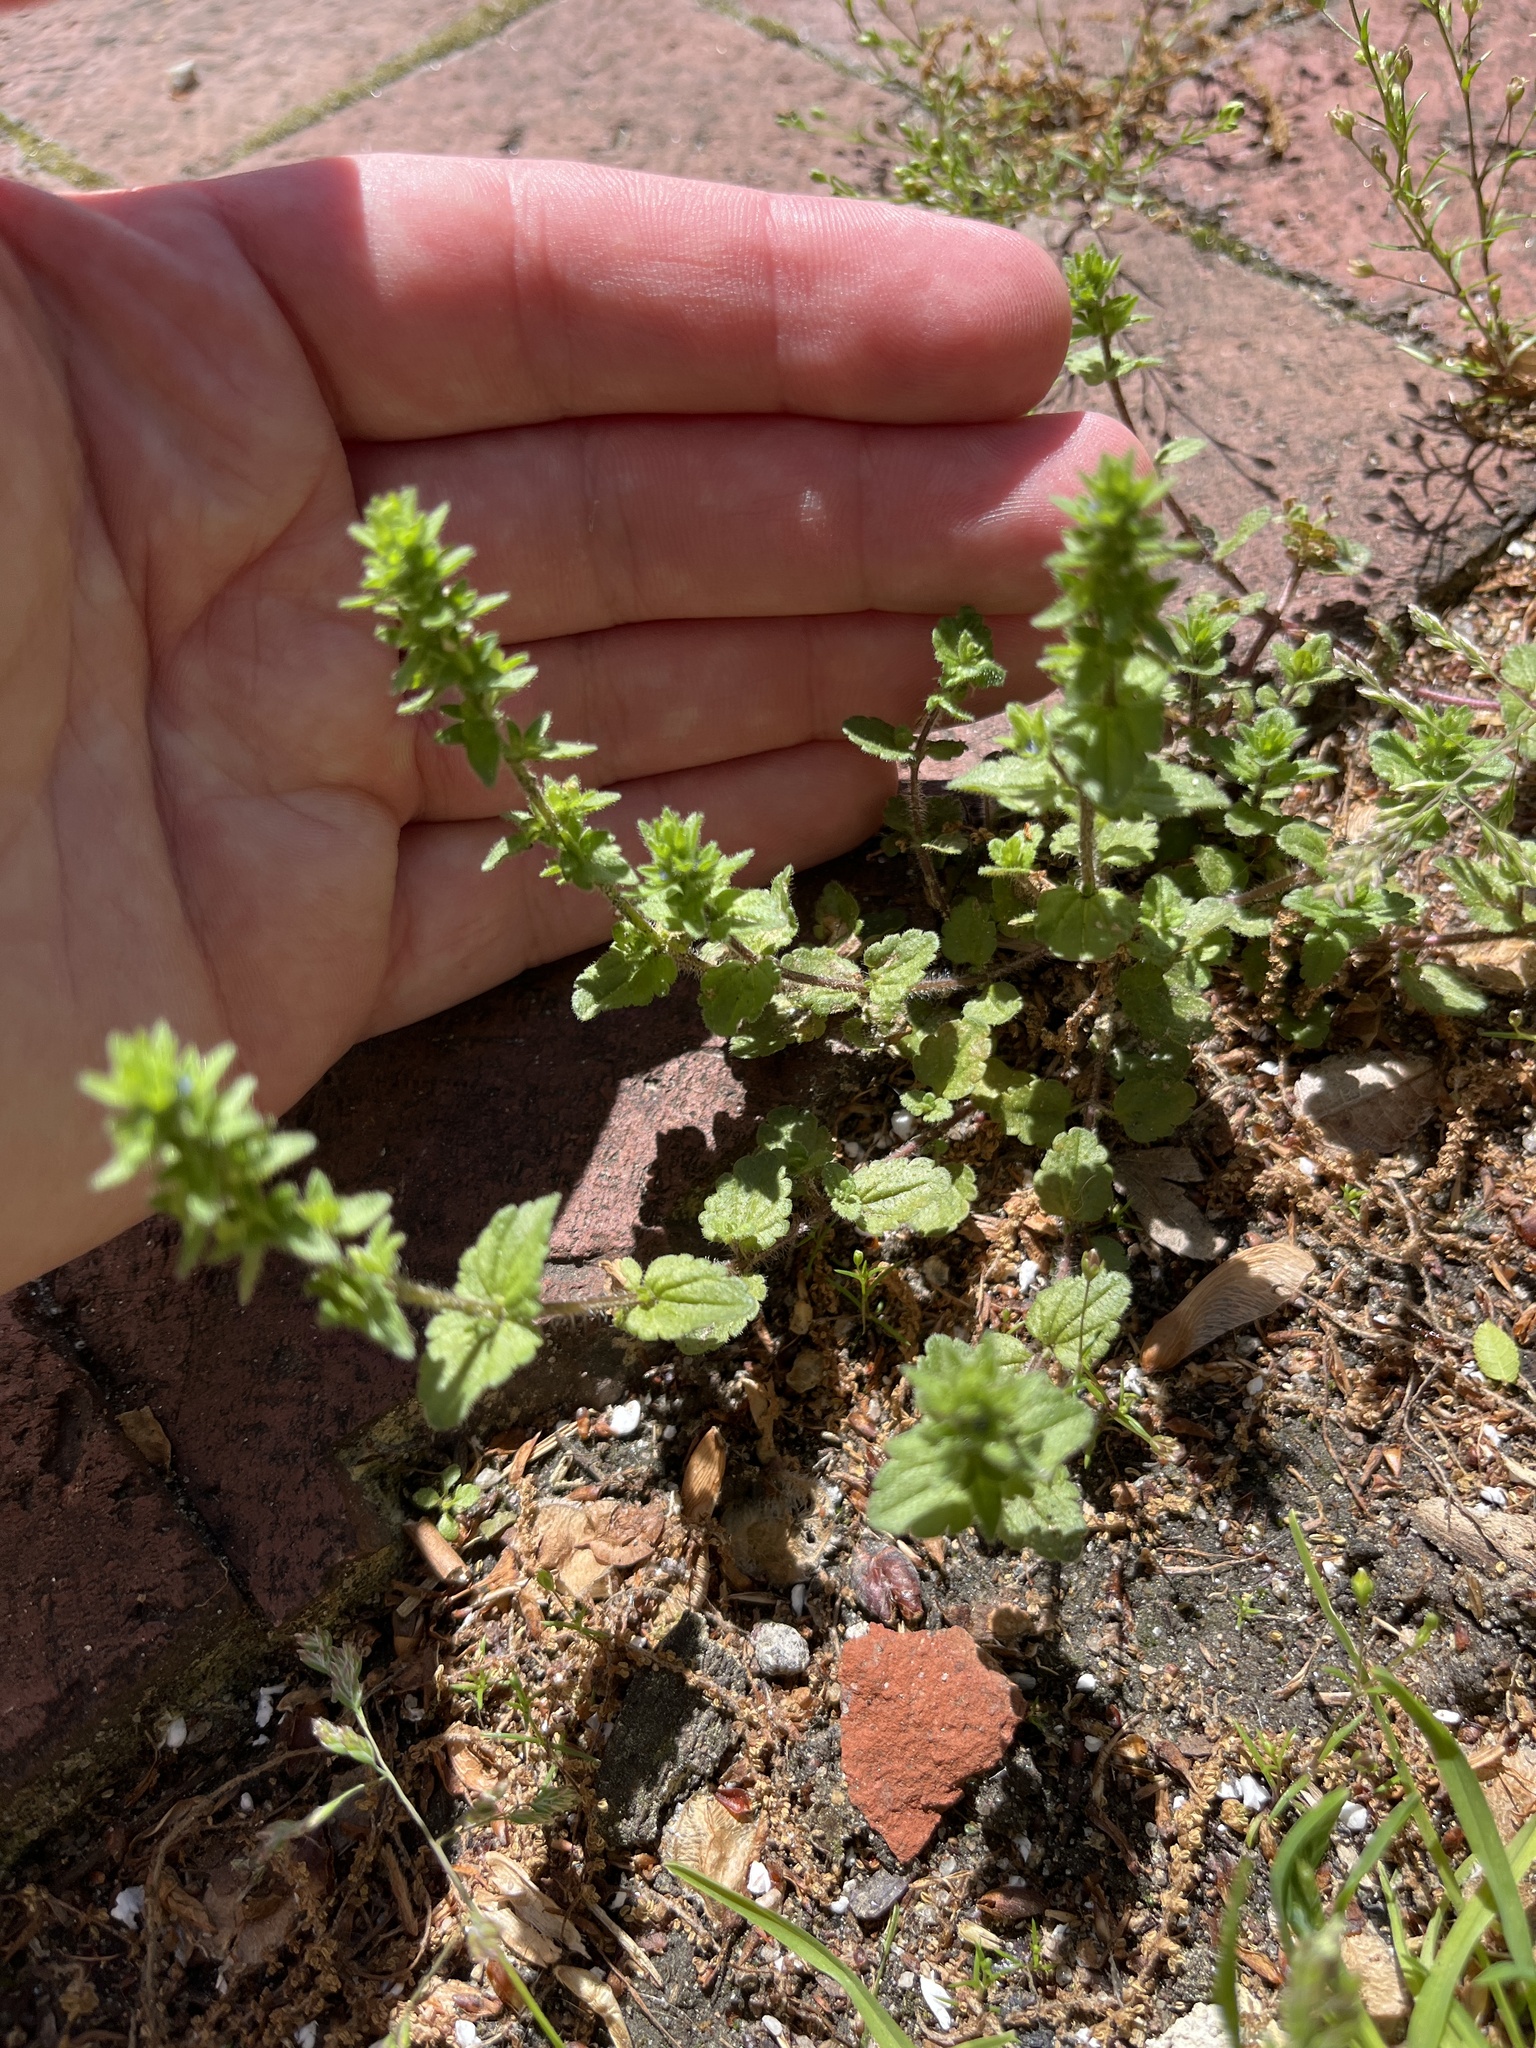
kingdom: Plantae
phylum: Tracheophyta
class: Magnoliopsida
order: Lamiales
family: Plantaginaceae
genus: Veronica
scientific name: Veronica arvensis
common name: Corn speedwell
